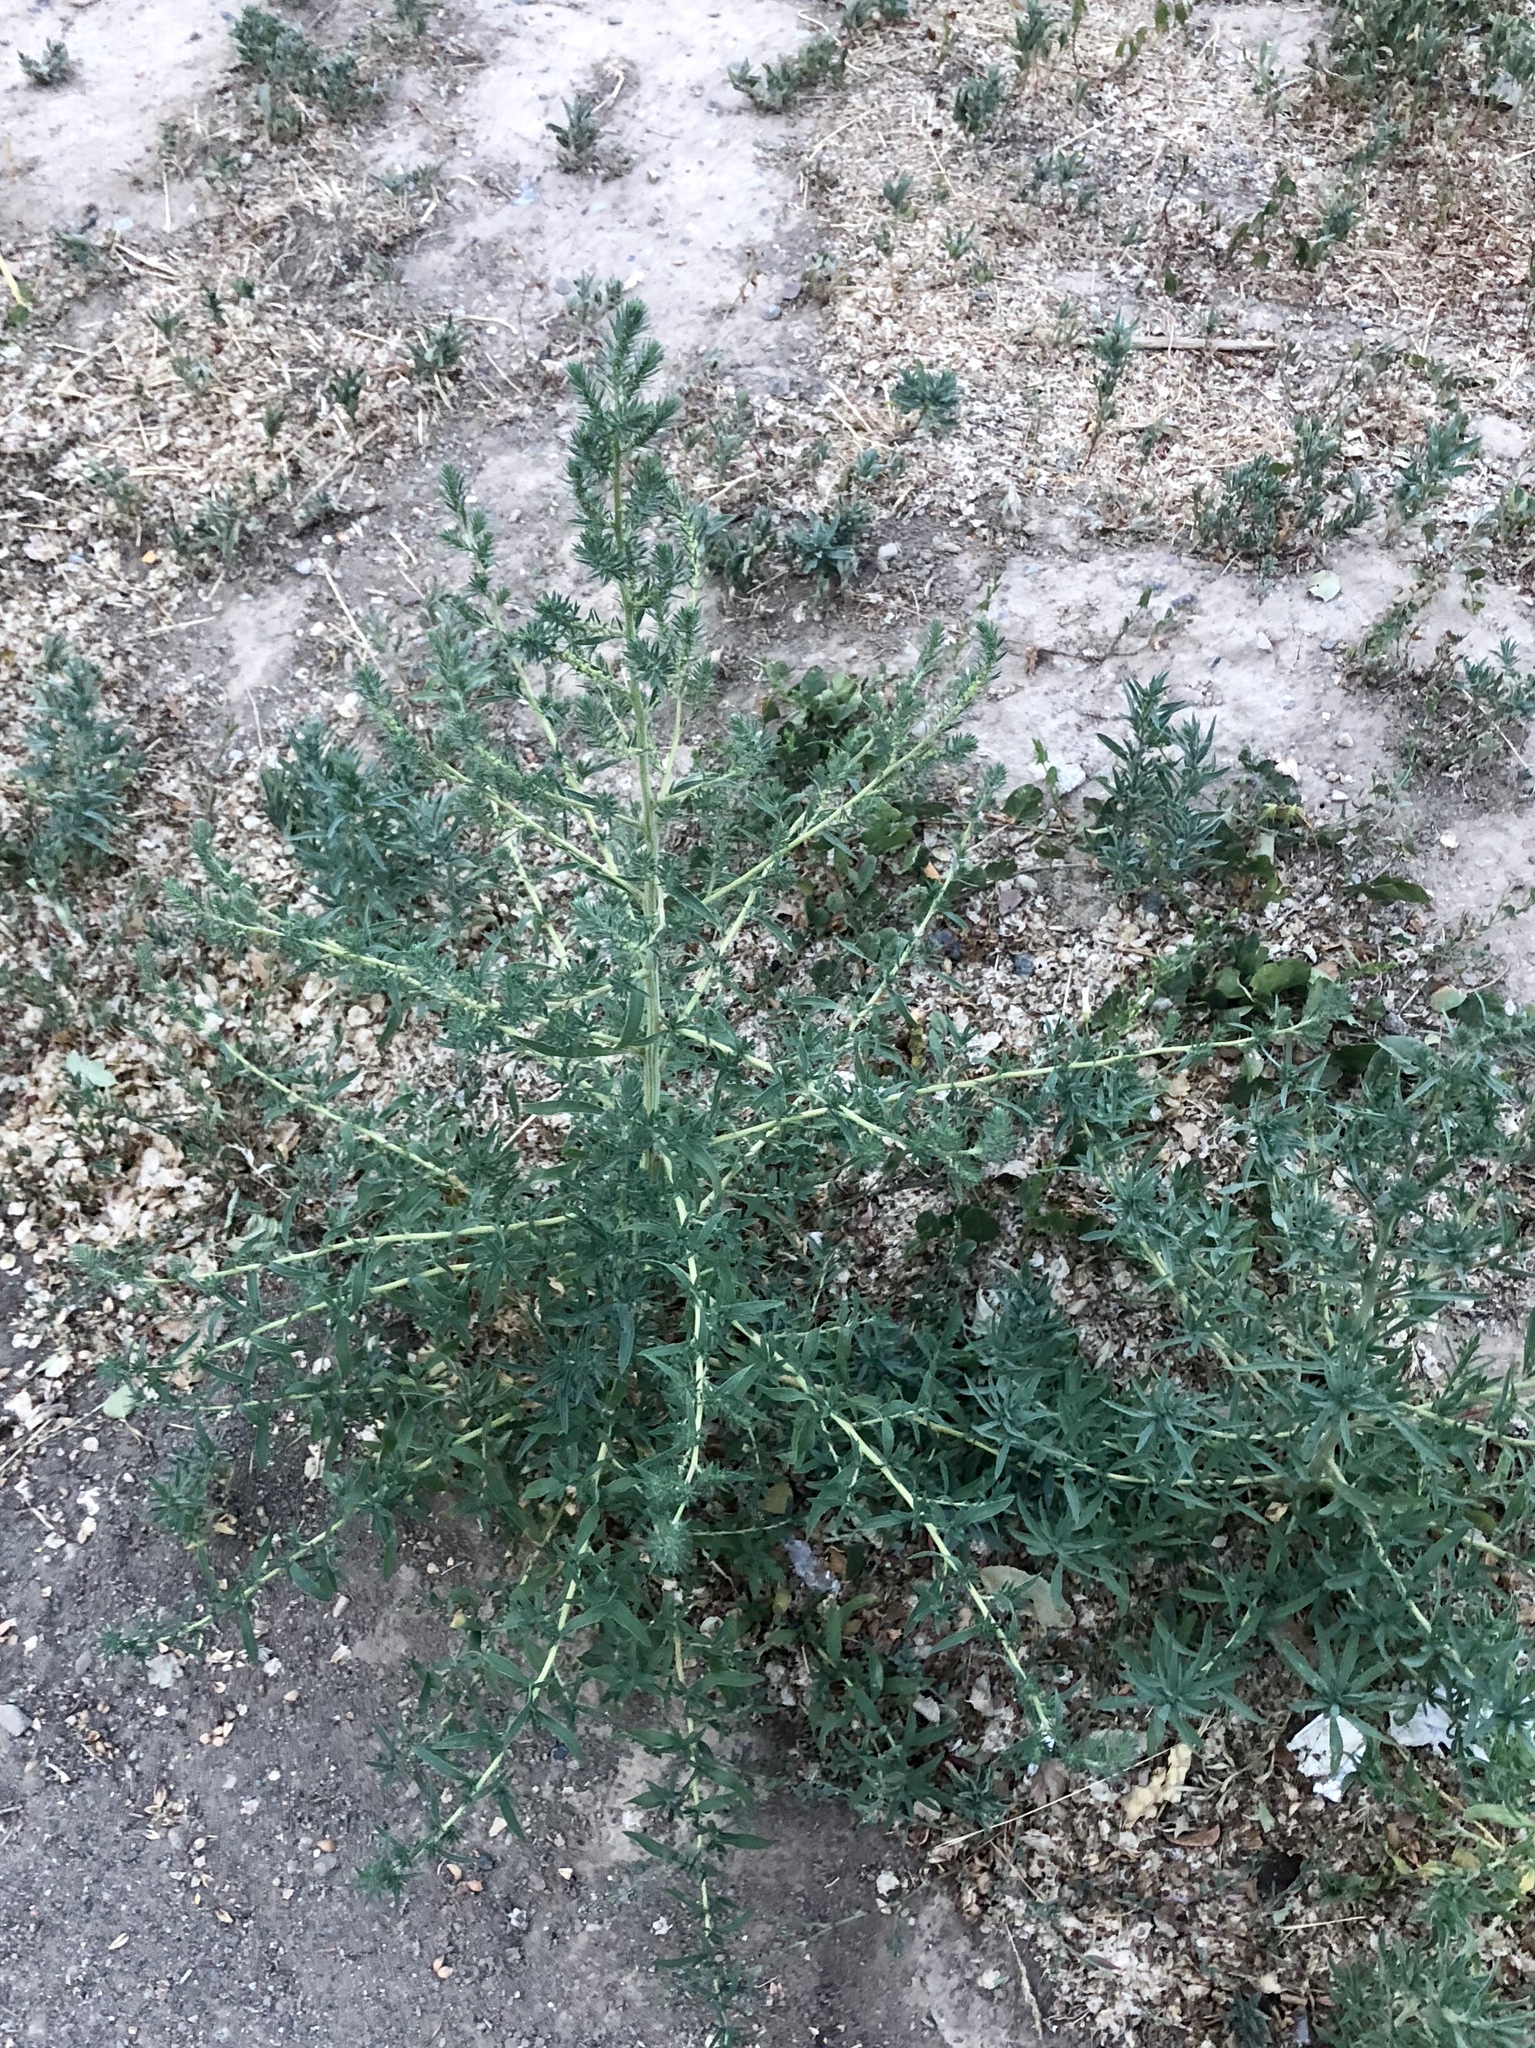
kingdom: Plantae
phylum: Tracheophyta
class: Magnoliopsida
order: Caryophyllales
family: Amaranthaceae
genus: Bassia
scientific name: Bassia scoparia
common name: Belvedere
